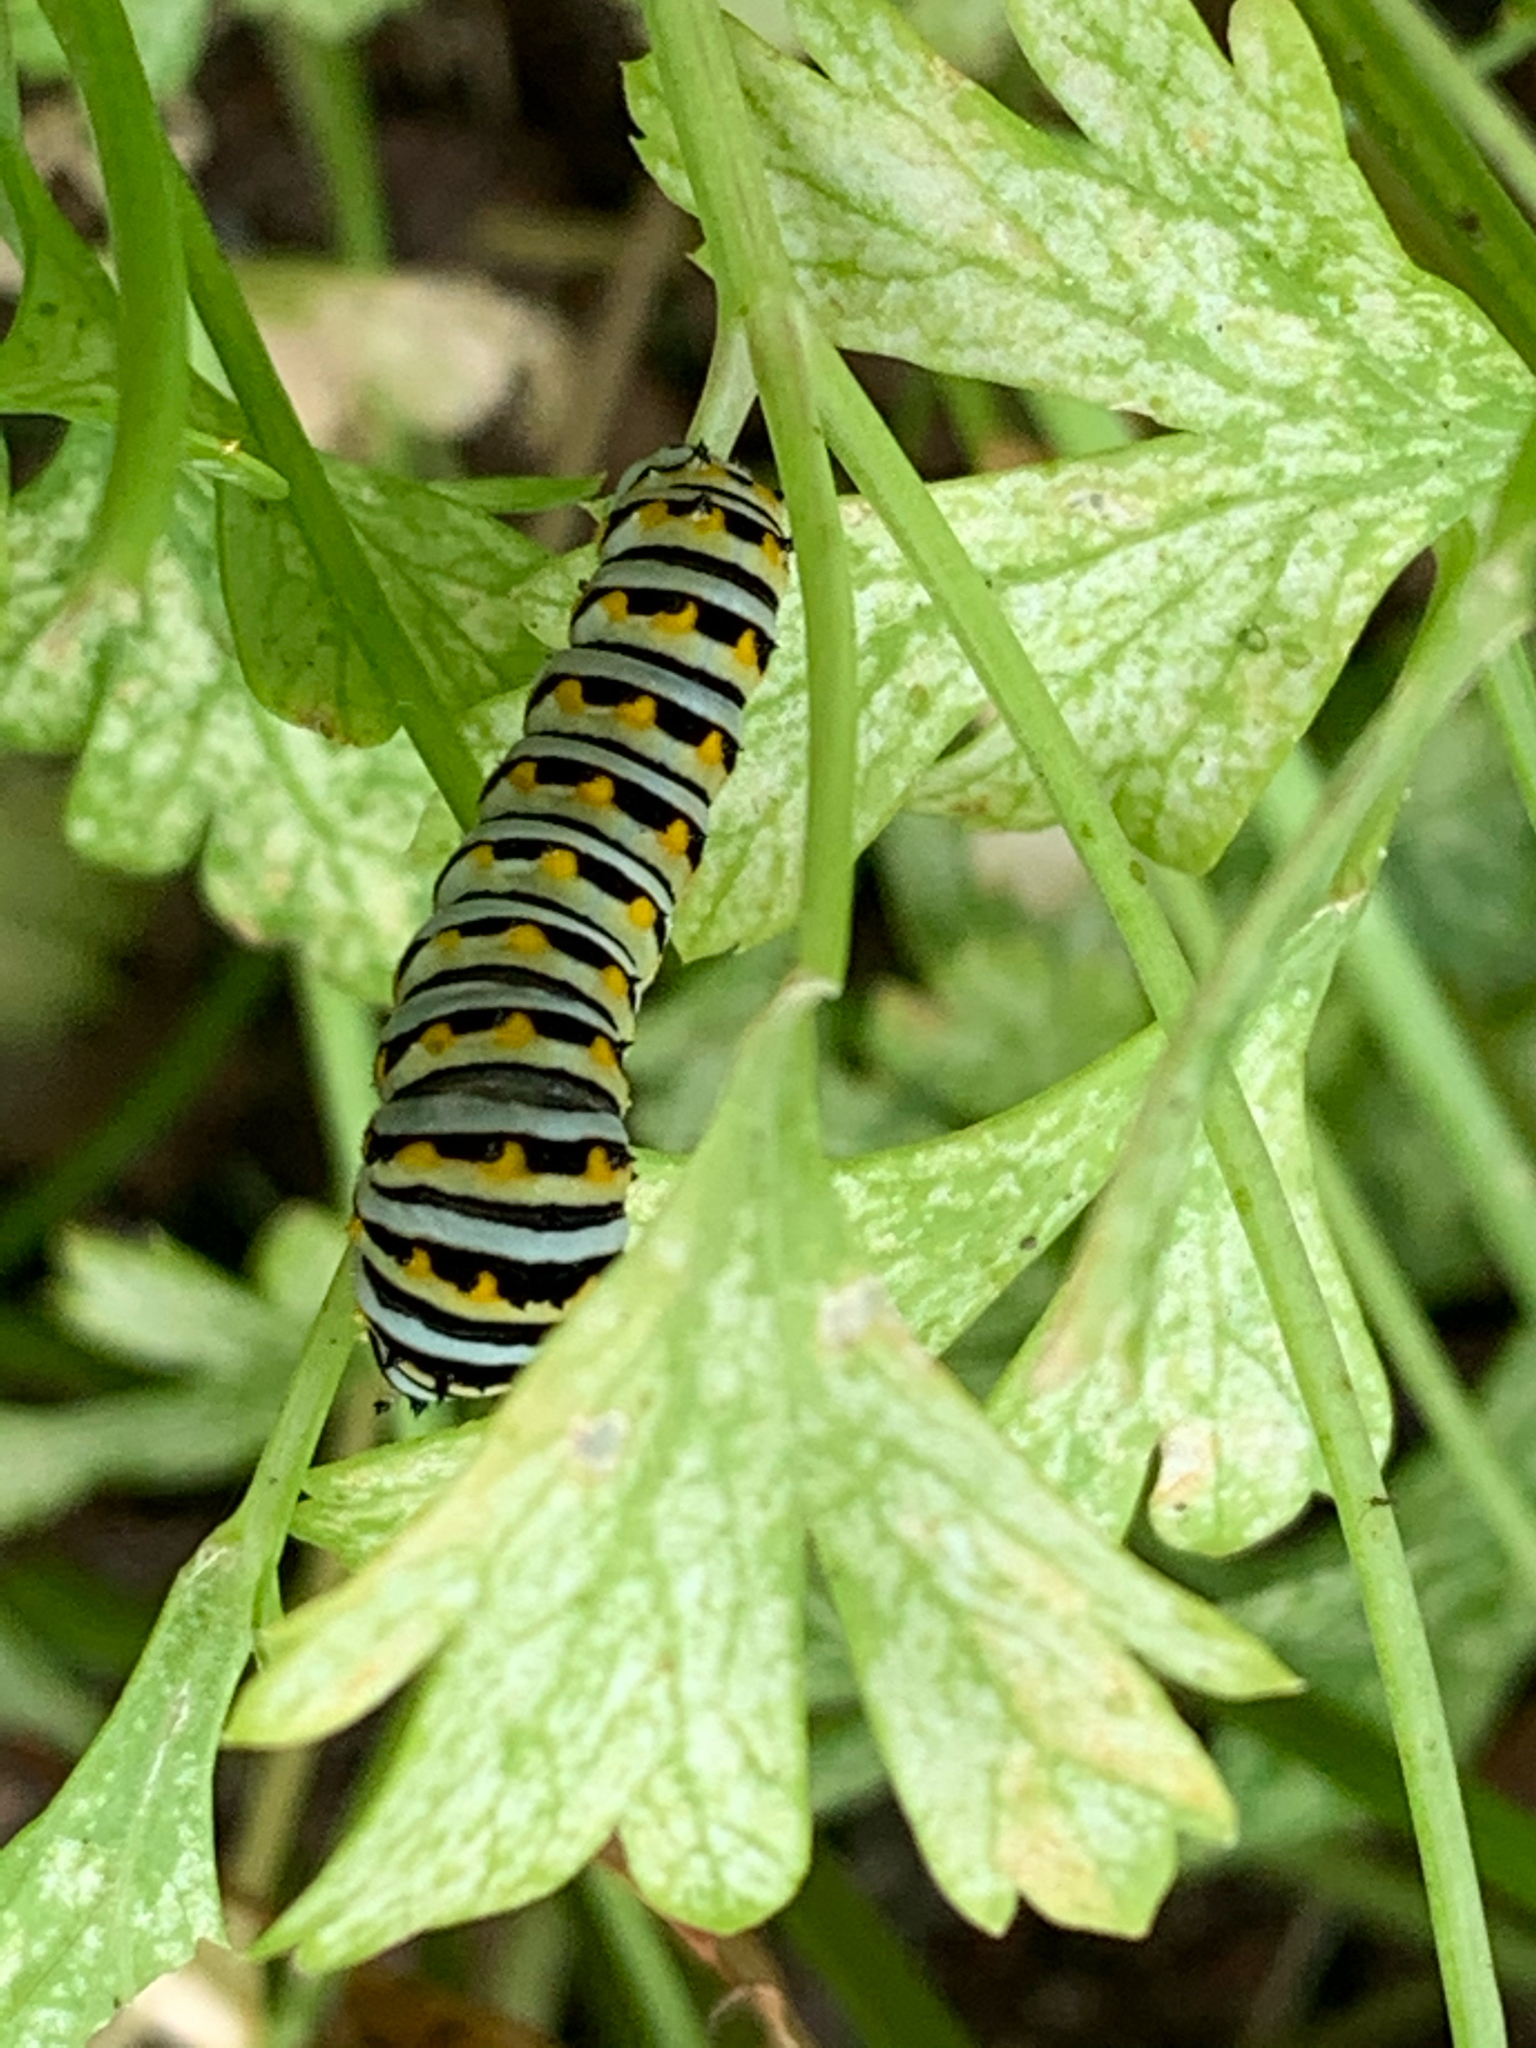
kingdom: Animalia
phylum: Arthropoda
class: Insecta
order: Lepidoptera
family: Papilionidae
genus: Papilio
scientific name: Papilio polyxenes
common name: Black swallowtail
